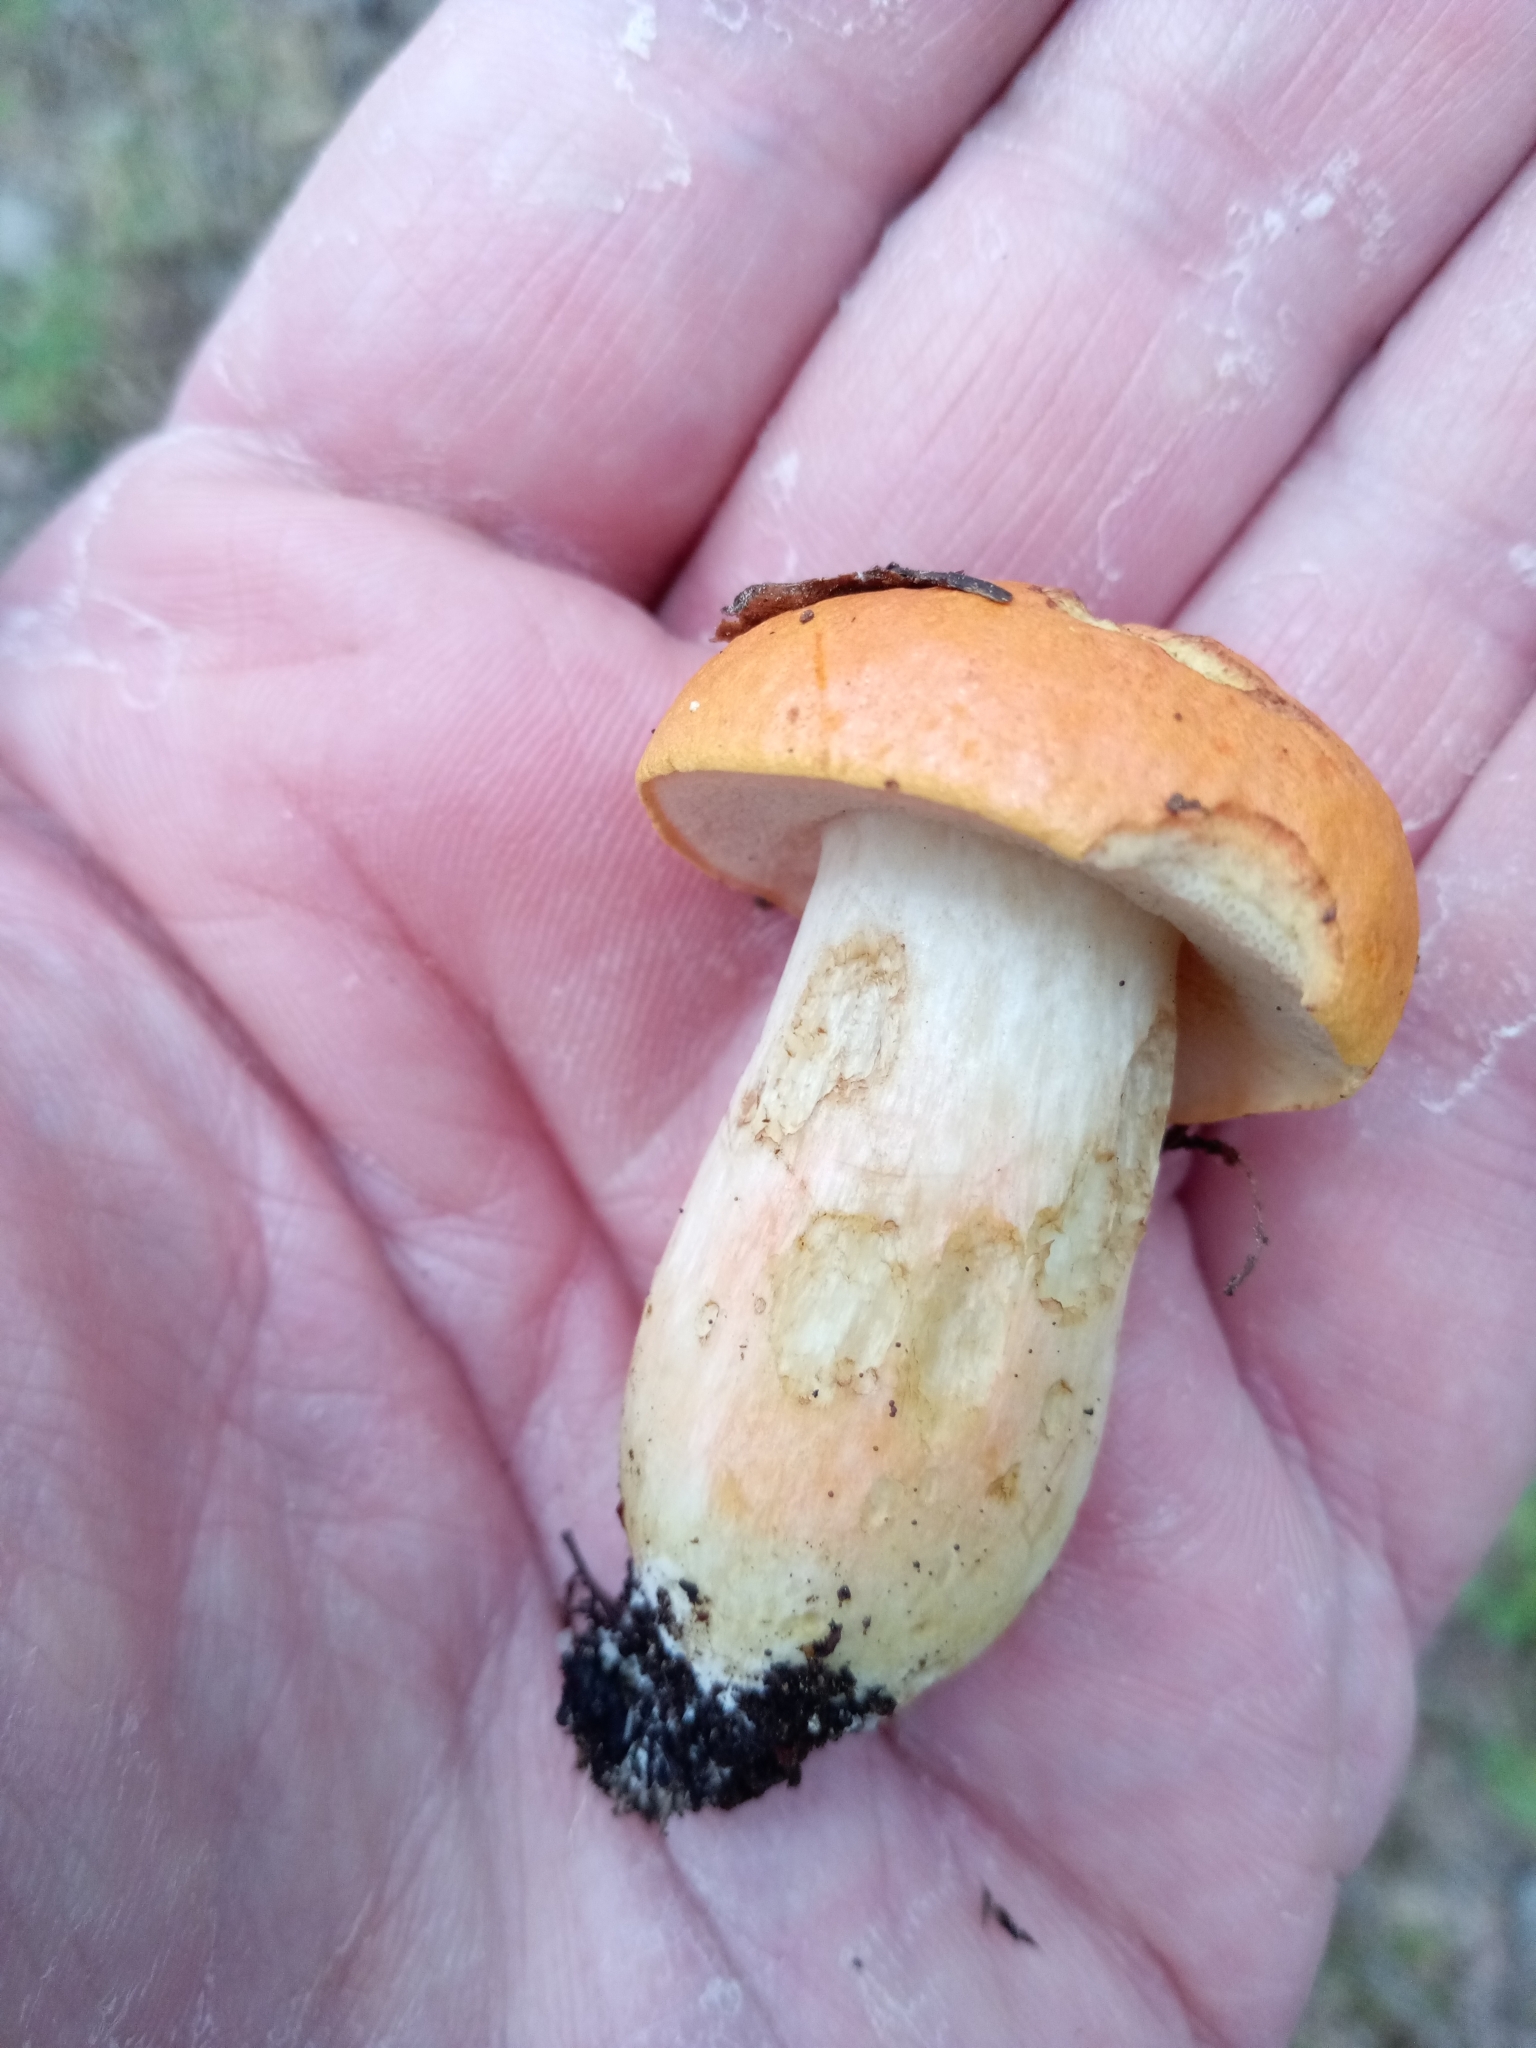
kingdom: Fungi
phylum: Basidiomycota
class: Agaricomycetes
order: Boletales
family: Boletaceae
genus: Tylopilus
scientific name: Tylopilus balloui
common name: Burnt-orange bolete
